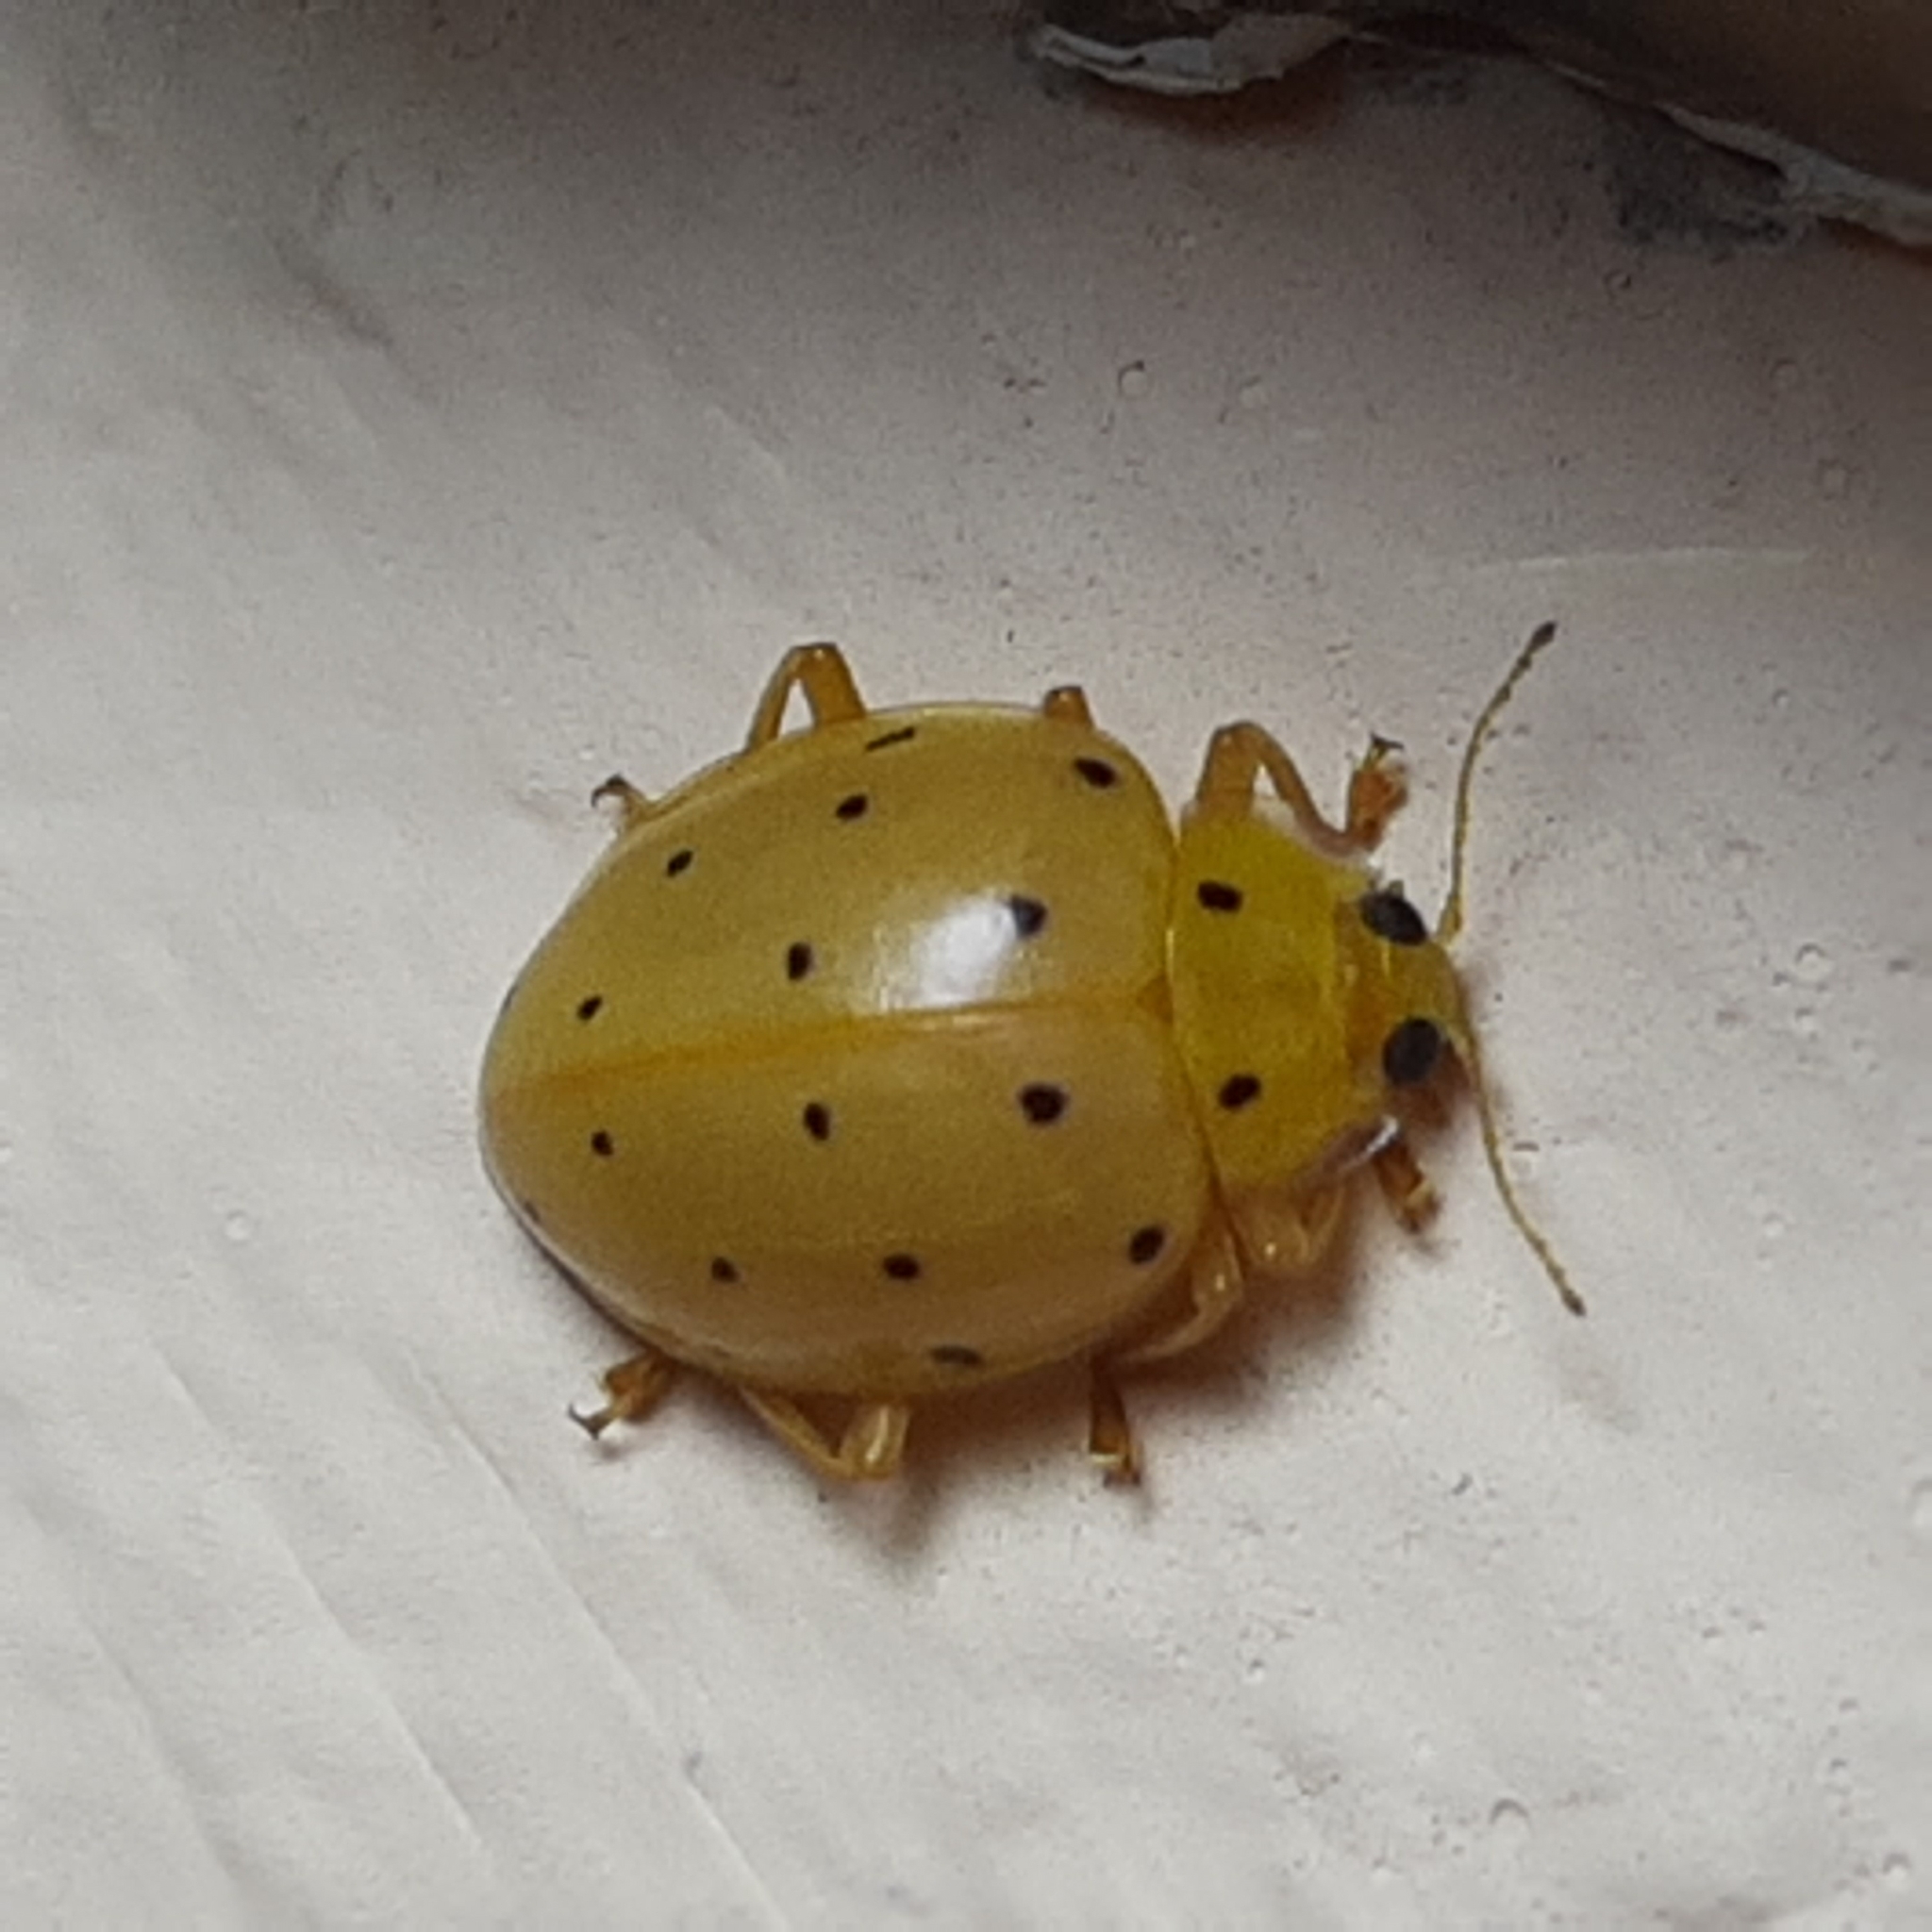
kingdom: Animalia
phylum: Arthropoda
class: Insecta
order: Coleoptera
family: Coccinellidae
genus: Neohalyzia
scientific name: Neohalyzia
